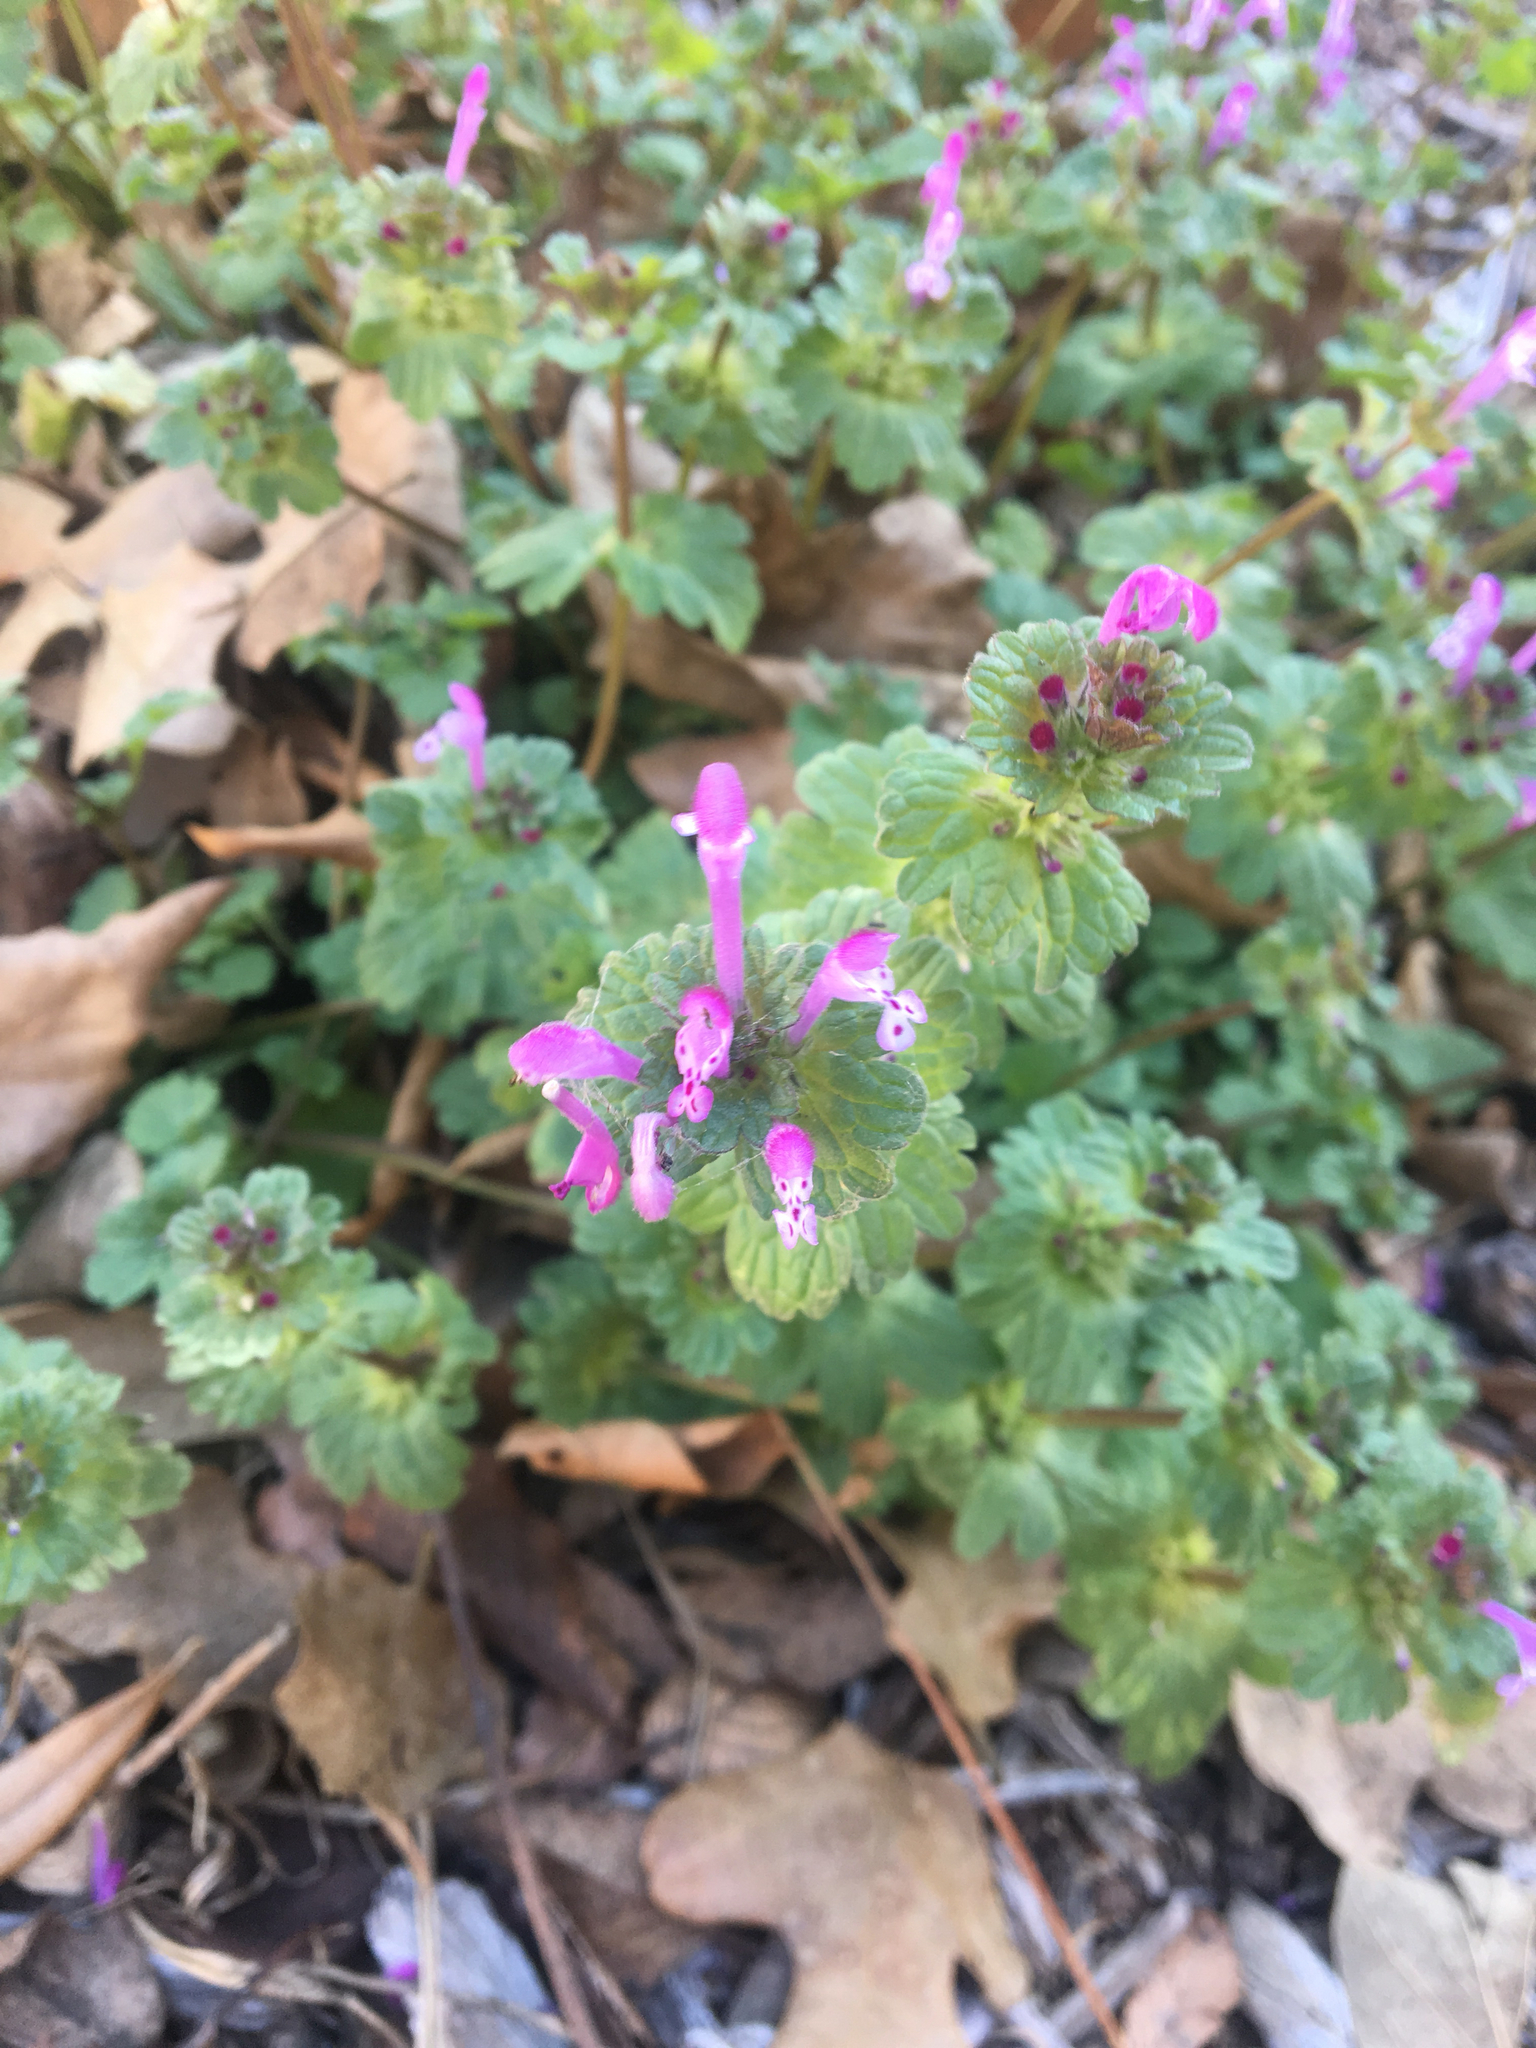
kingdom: Plantae
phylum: Tracheophyta
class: Magnoliopsida
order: Lamiales
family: Lamiaceae
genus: Lamium
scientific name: Lamium amplexicaule
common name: Henbit dead-nettle
